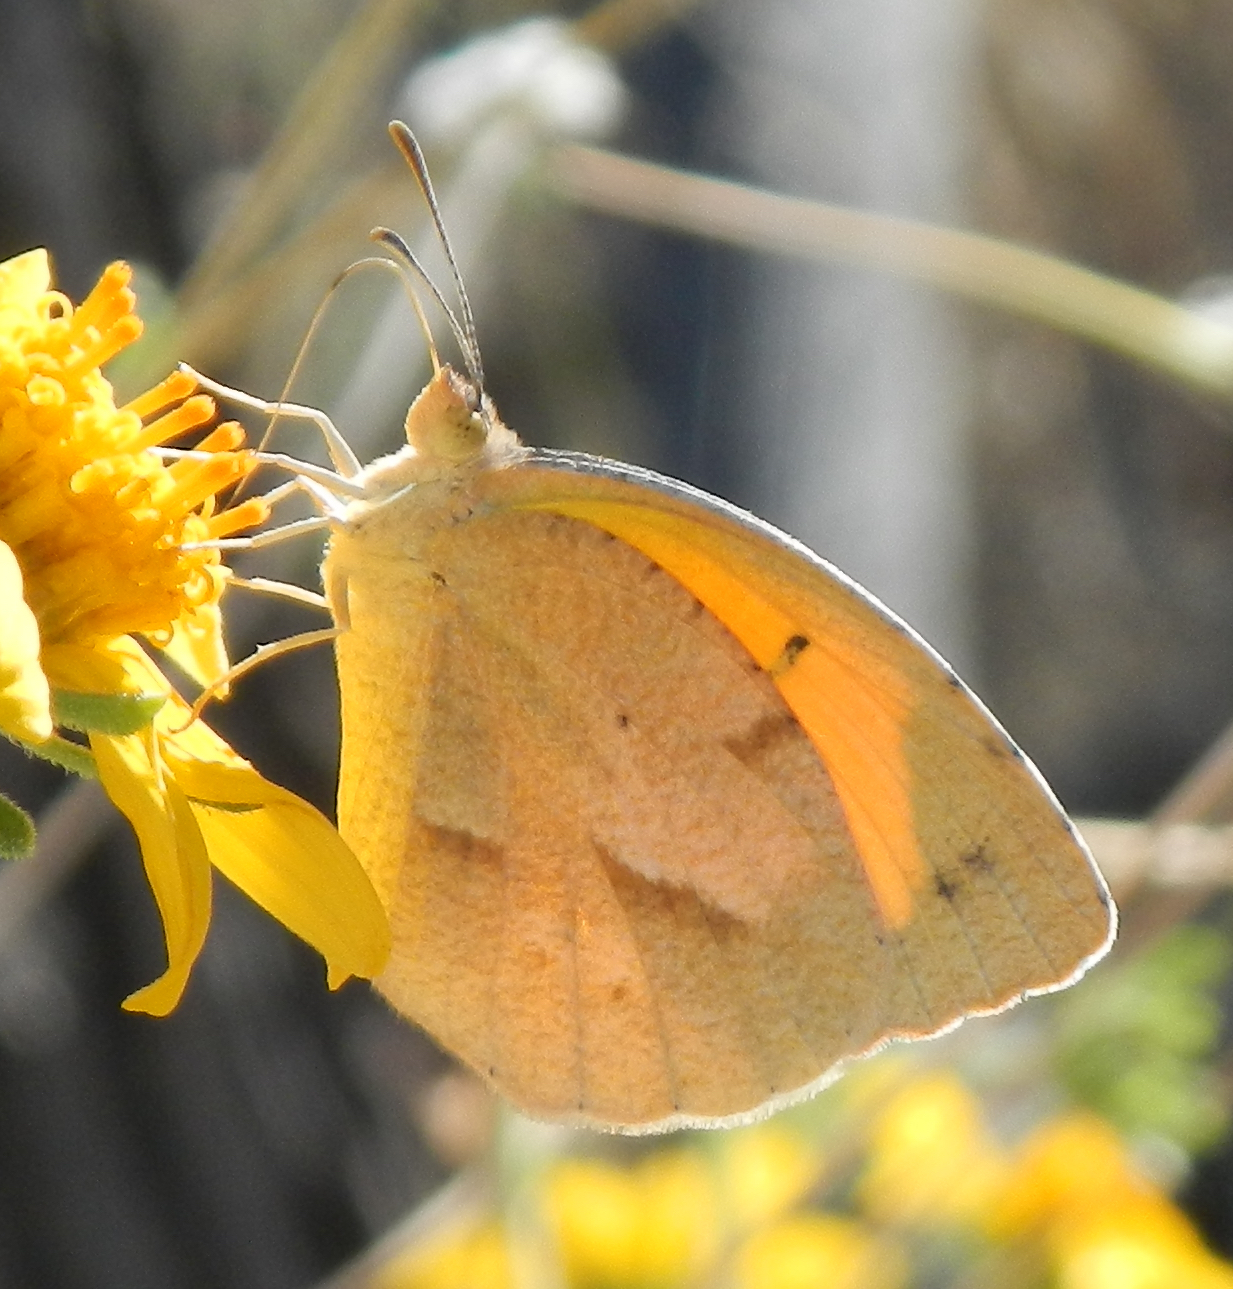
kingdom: Animalia
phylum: Arthropoda
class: Insecta
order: Lepidoptera
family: Pieridae
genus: Abaeis
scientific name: Abaeis nicippe
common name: Sleepy orange
